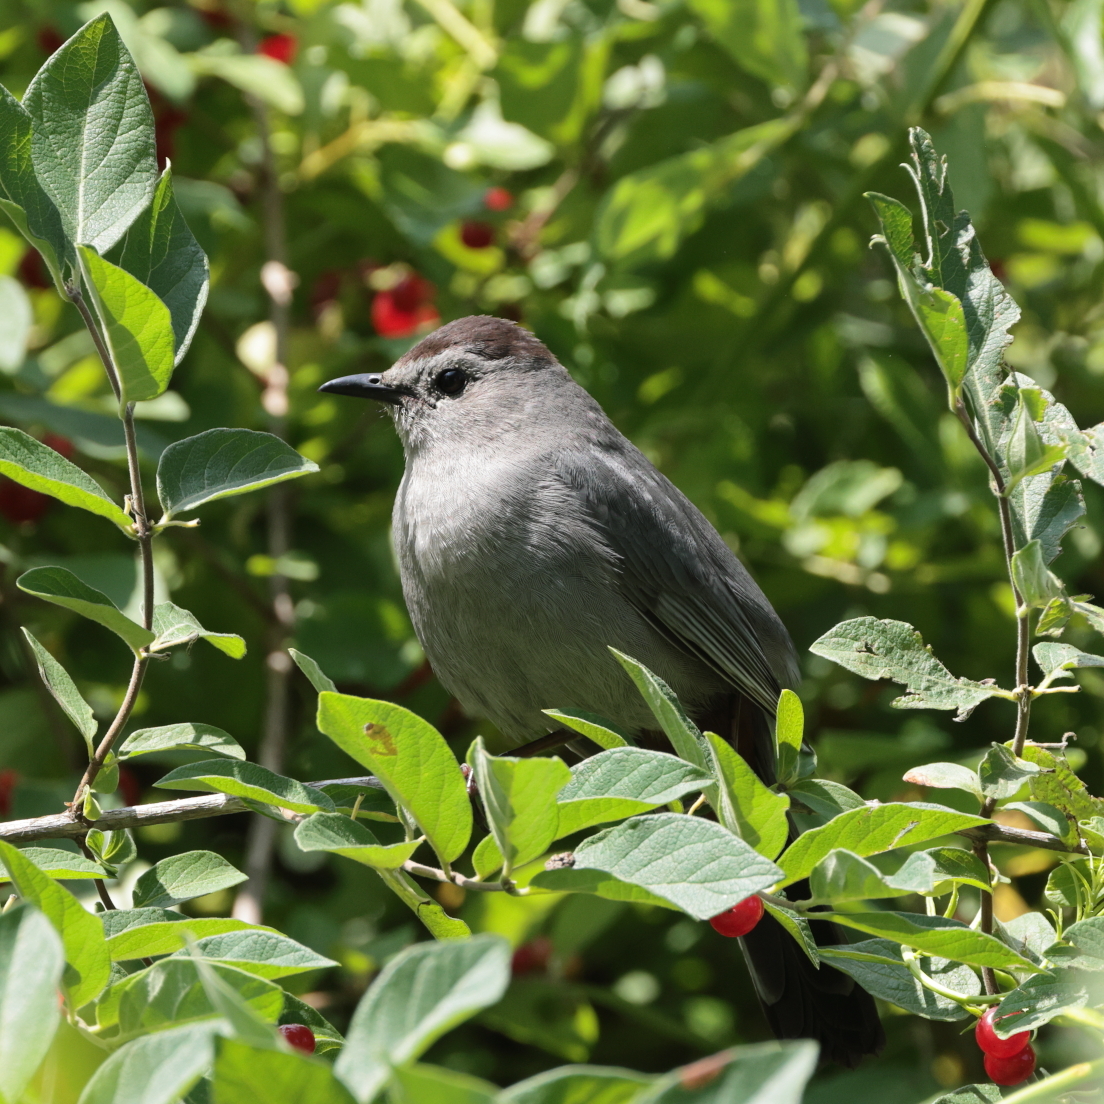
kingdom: Animalia
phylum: Chordata
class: Aves
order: Passeriformes
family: Mimidae
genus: Dumetella
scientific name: Dumetella carolinensis
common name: Gray catbird
